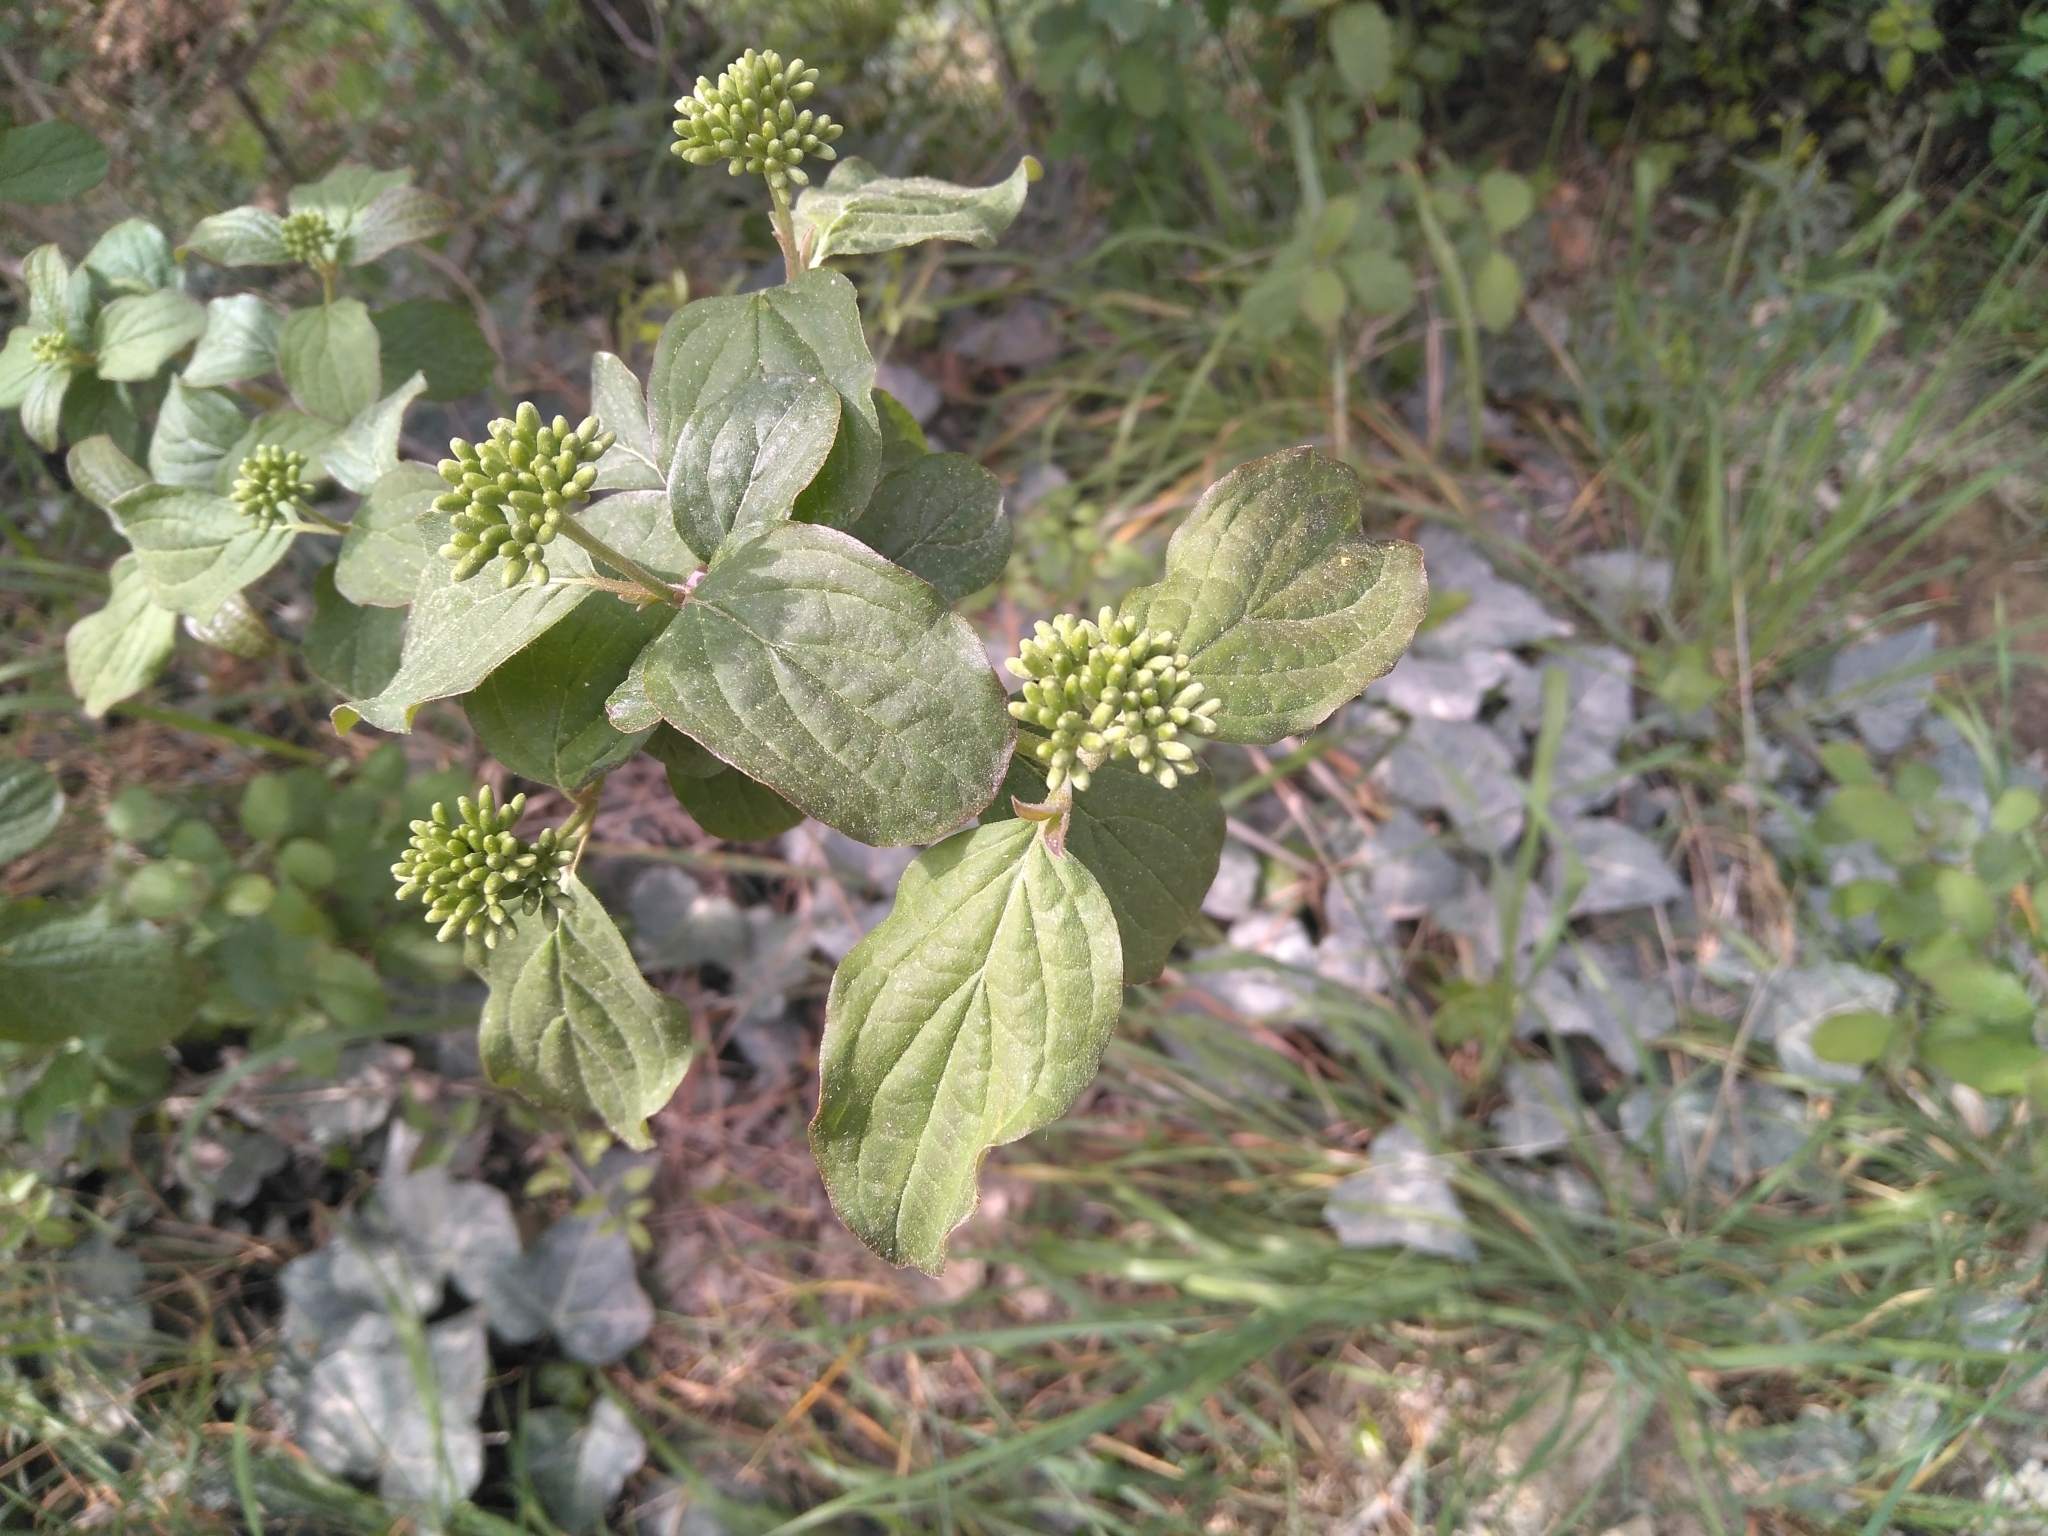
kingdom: Plantae
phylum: Tracheophyta
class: Magnoliopsida
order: Cornales
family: Cornaceae
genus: Cornus
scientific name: Cornus sanguinea
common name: Dogwood
